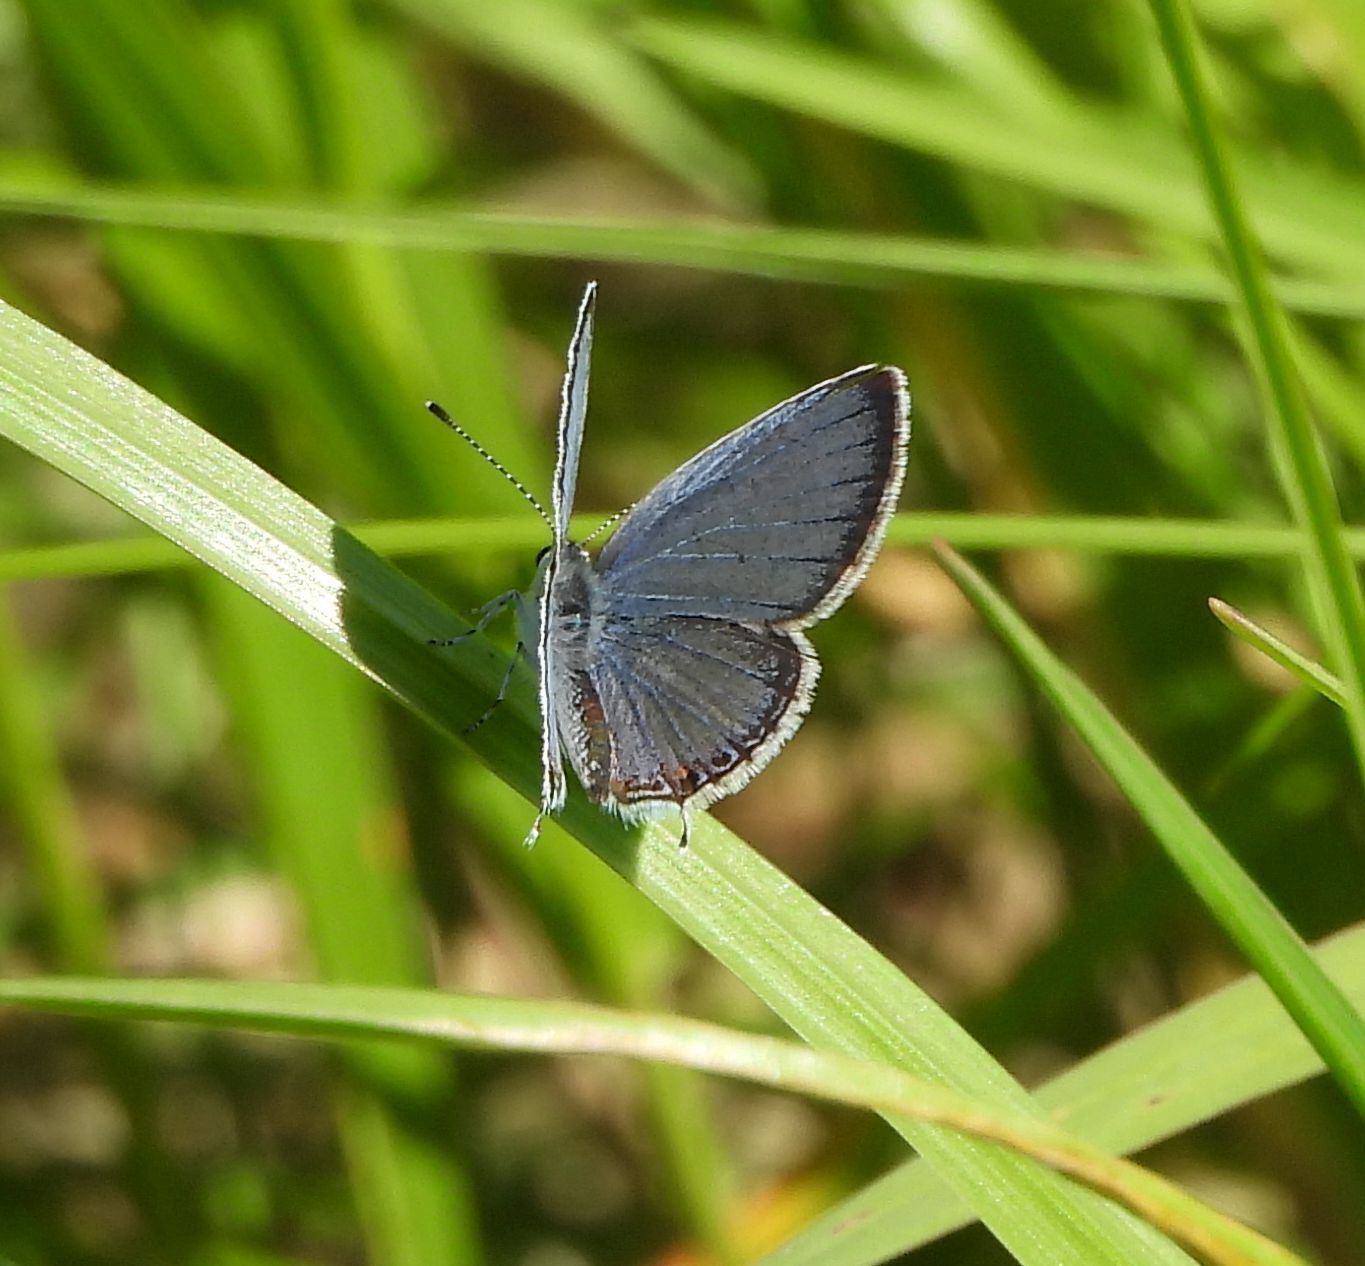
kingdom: Animalia
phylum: Arthropoda
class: Insecta
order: Lepidoptera
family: Lycaenidae
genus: Elkalyce
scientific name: Elkalyce comyntas
